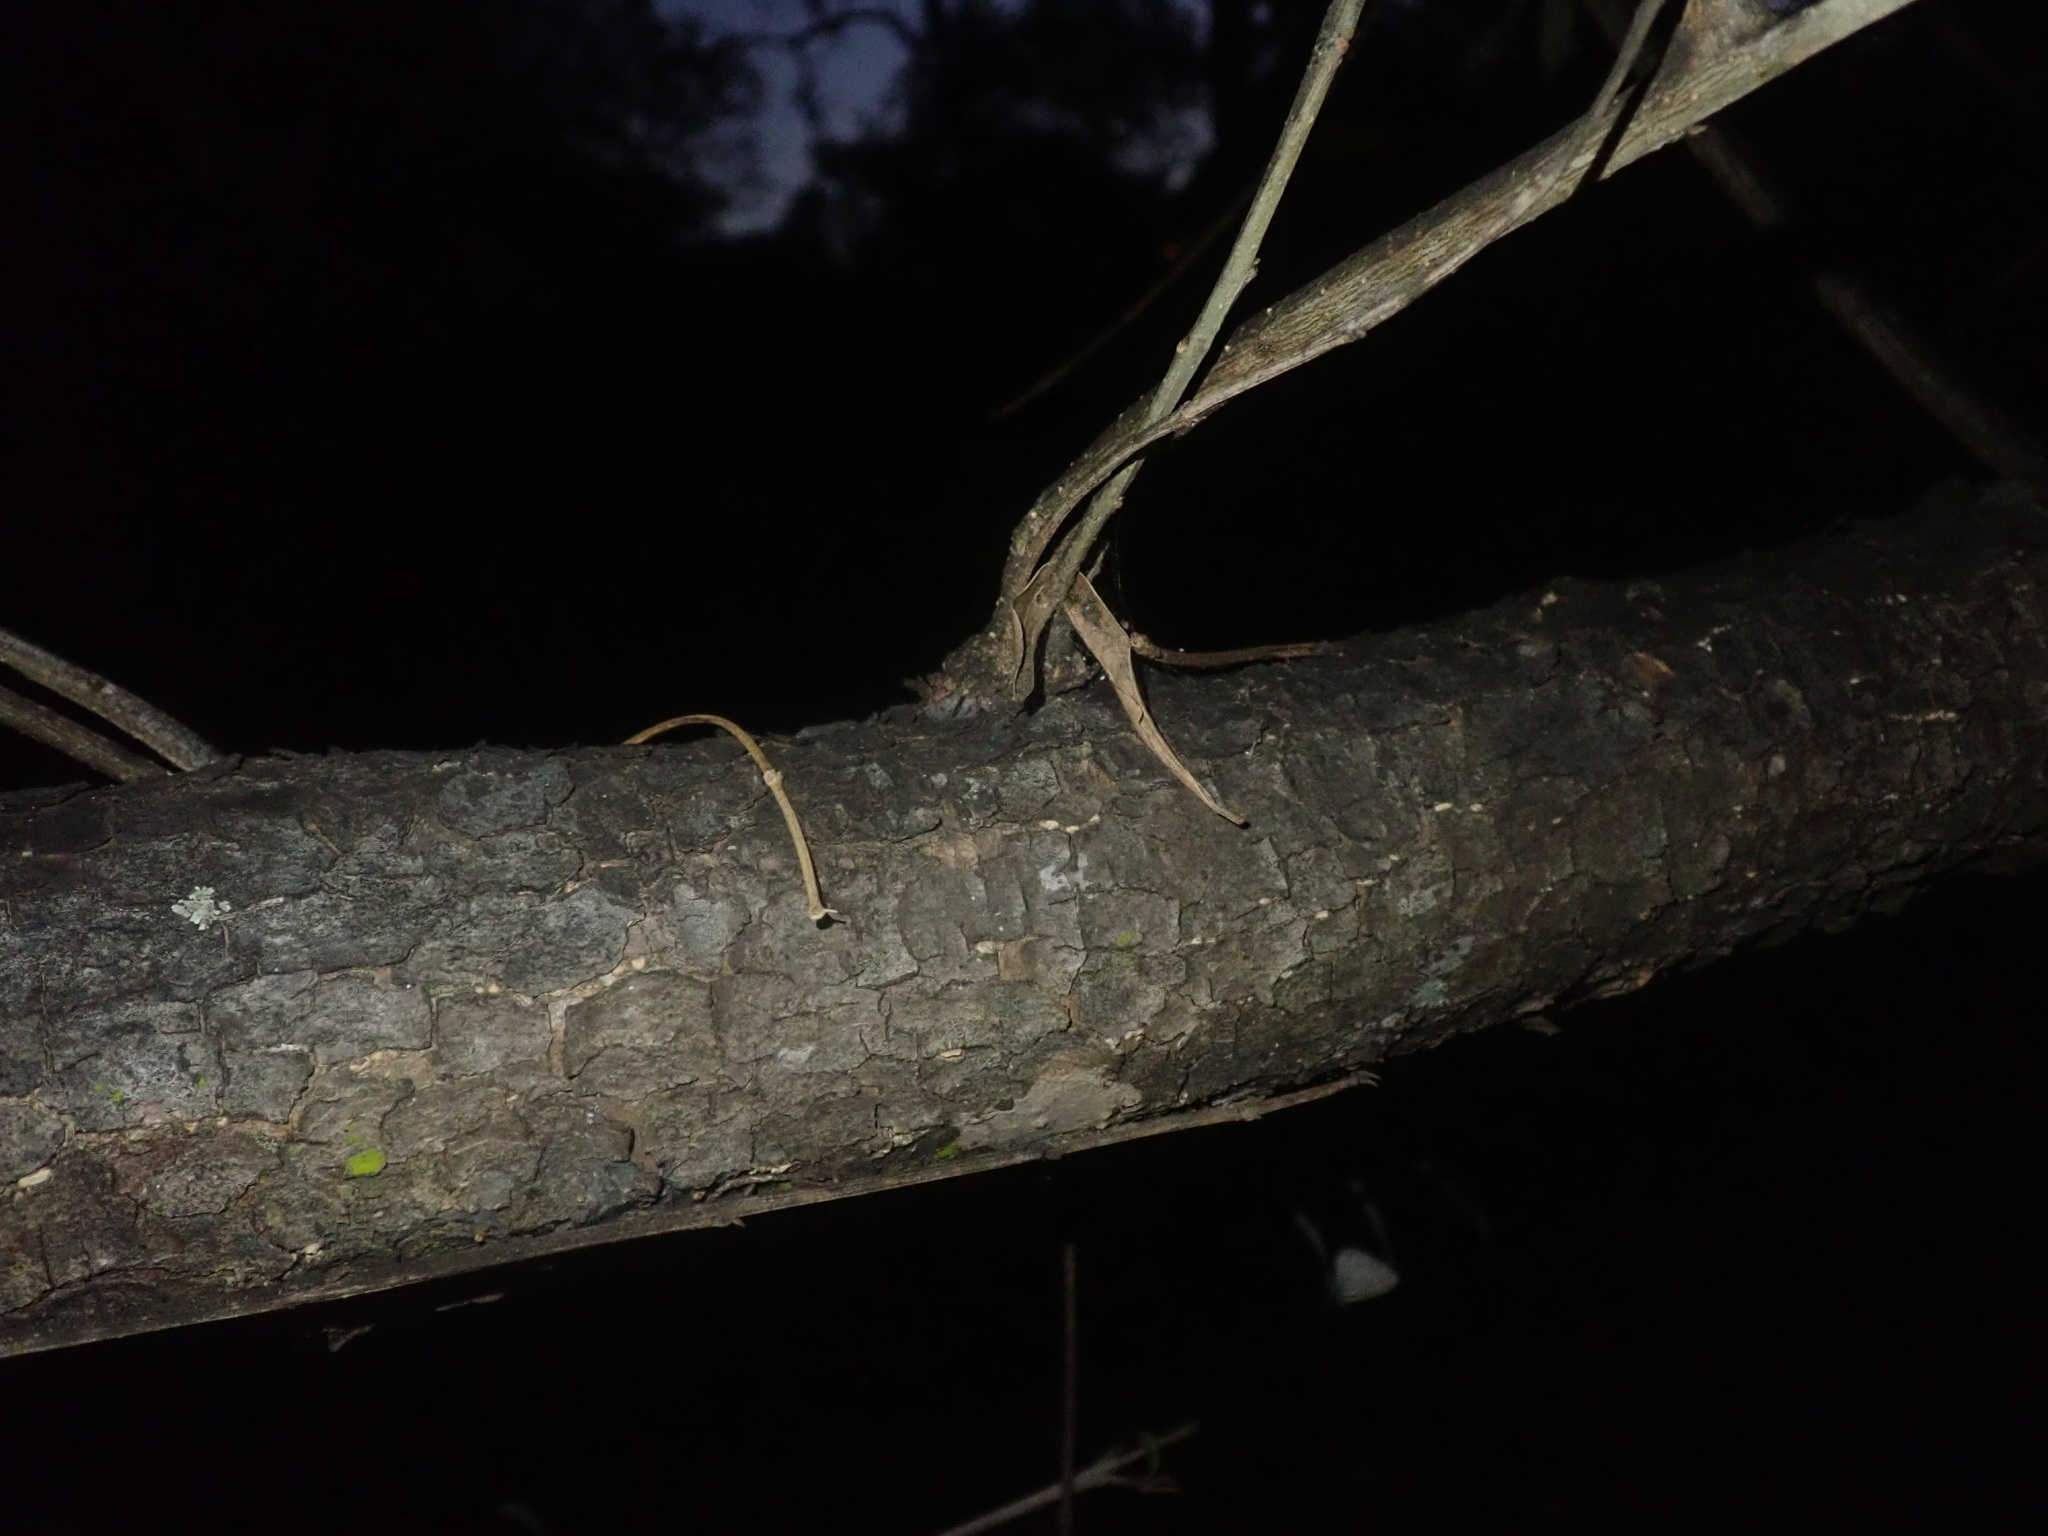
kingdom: Plantae
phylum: Tracheophyta
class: Magnoliopsida
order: Lamiales
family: Oleaceae
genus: Olea
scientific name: Olea europaea
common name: Olive
